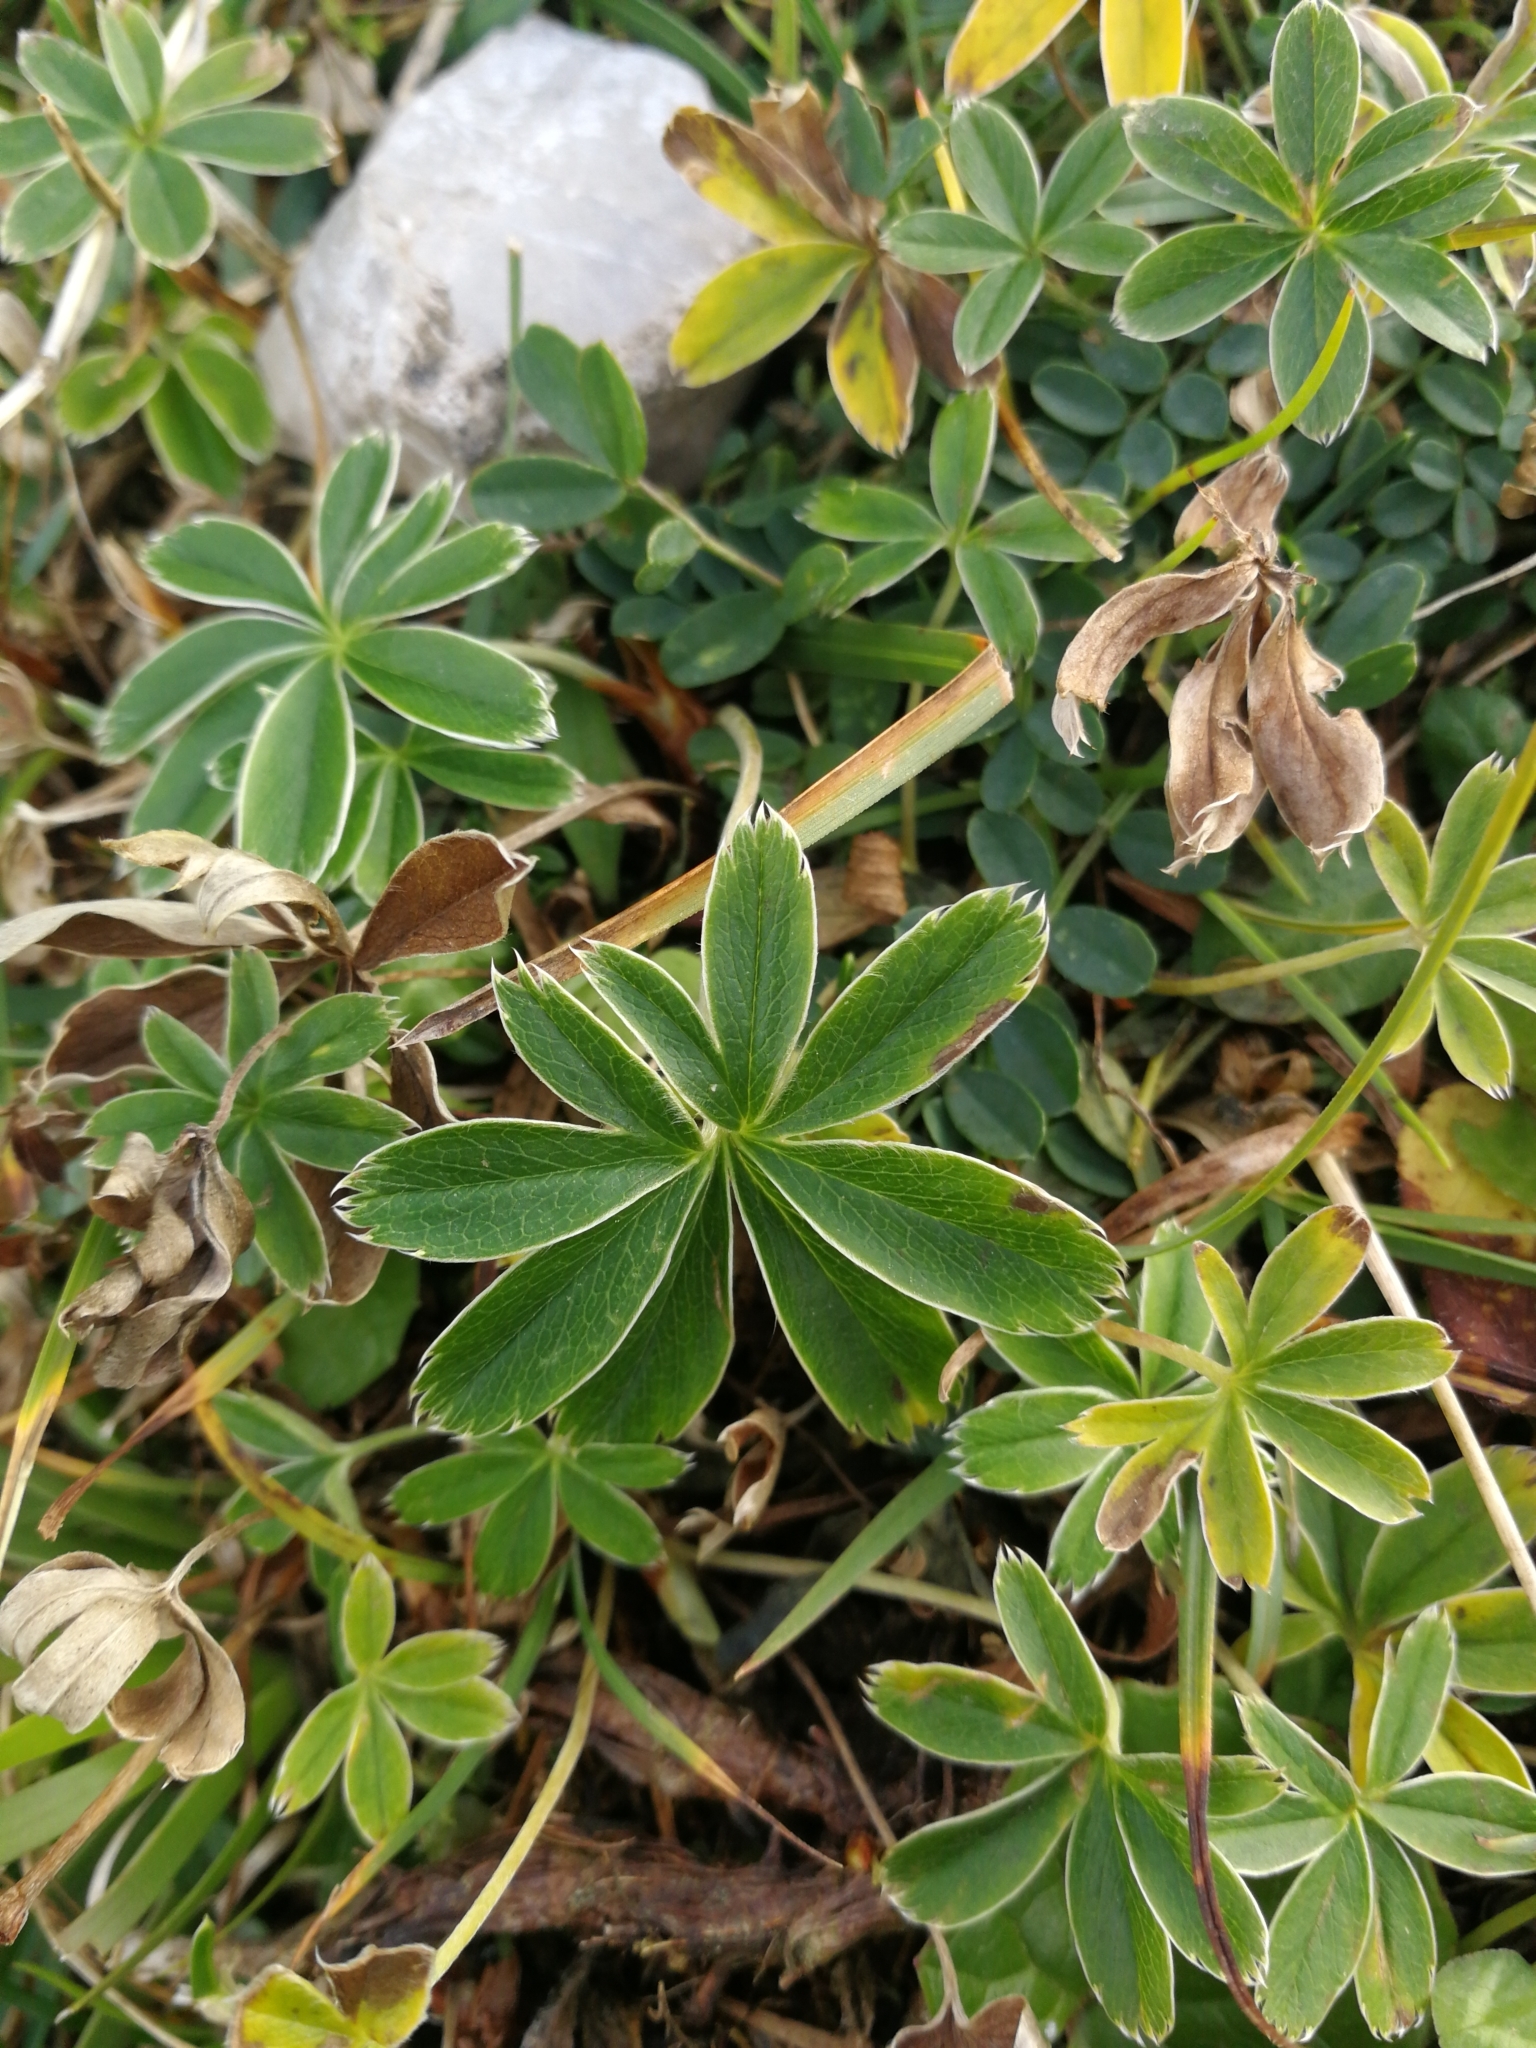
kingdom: Plantae
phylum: Tracheophyta
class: Magnoliopsida
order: Rosales
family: Rosaceae
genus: Alchemilla
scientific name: Alchemilla alpina
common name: Alpine lady's-mantle
